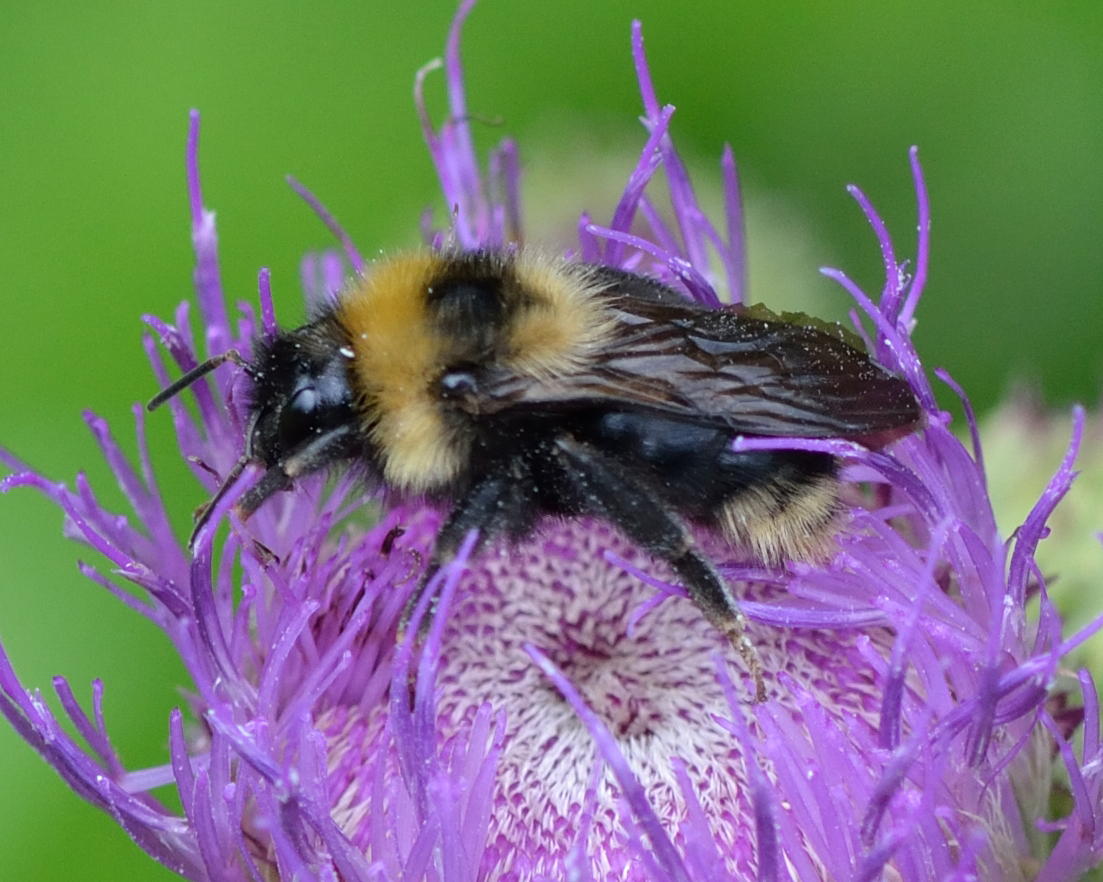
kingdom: Animalia
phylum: Arthropoda
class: Insecta
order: Hymenoptera
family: Apidae
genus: Bombus
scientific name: Bombus campestris
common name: Field cuckoo-bee
